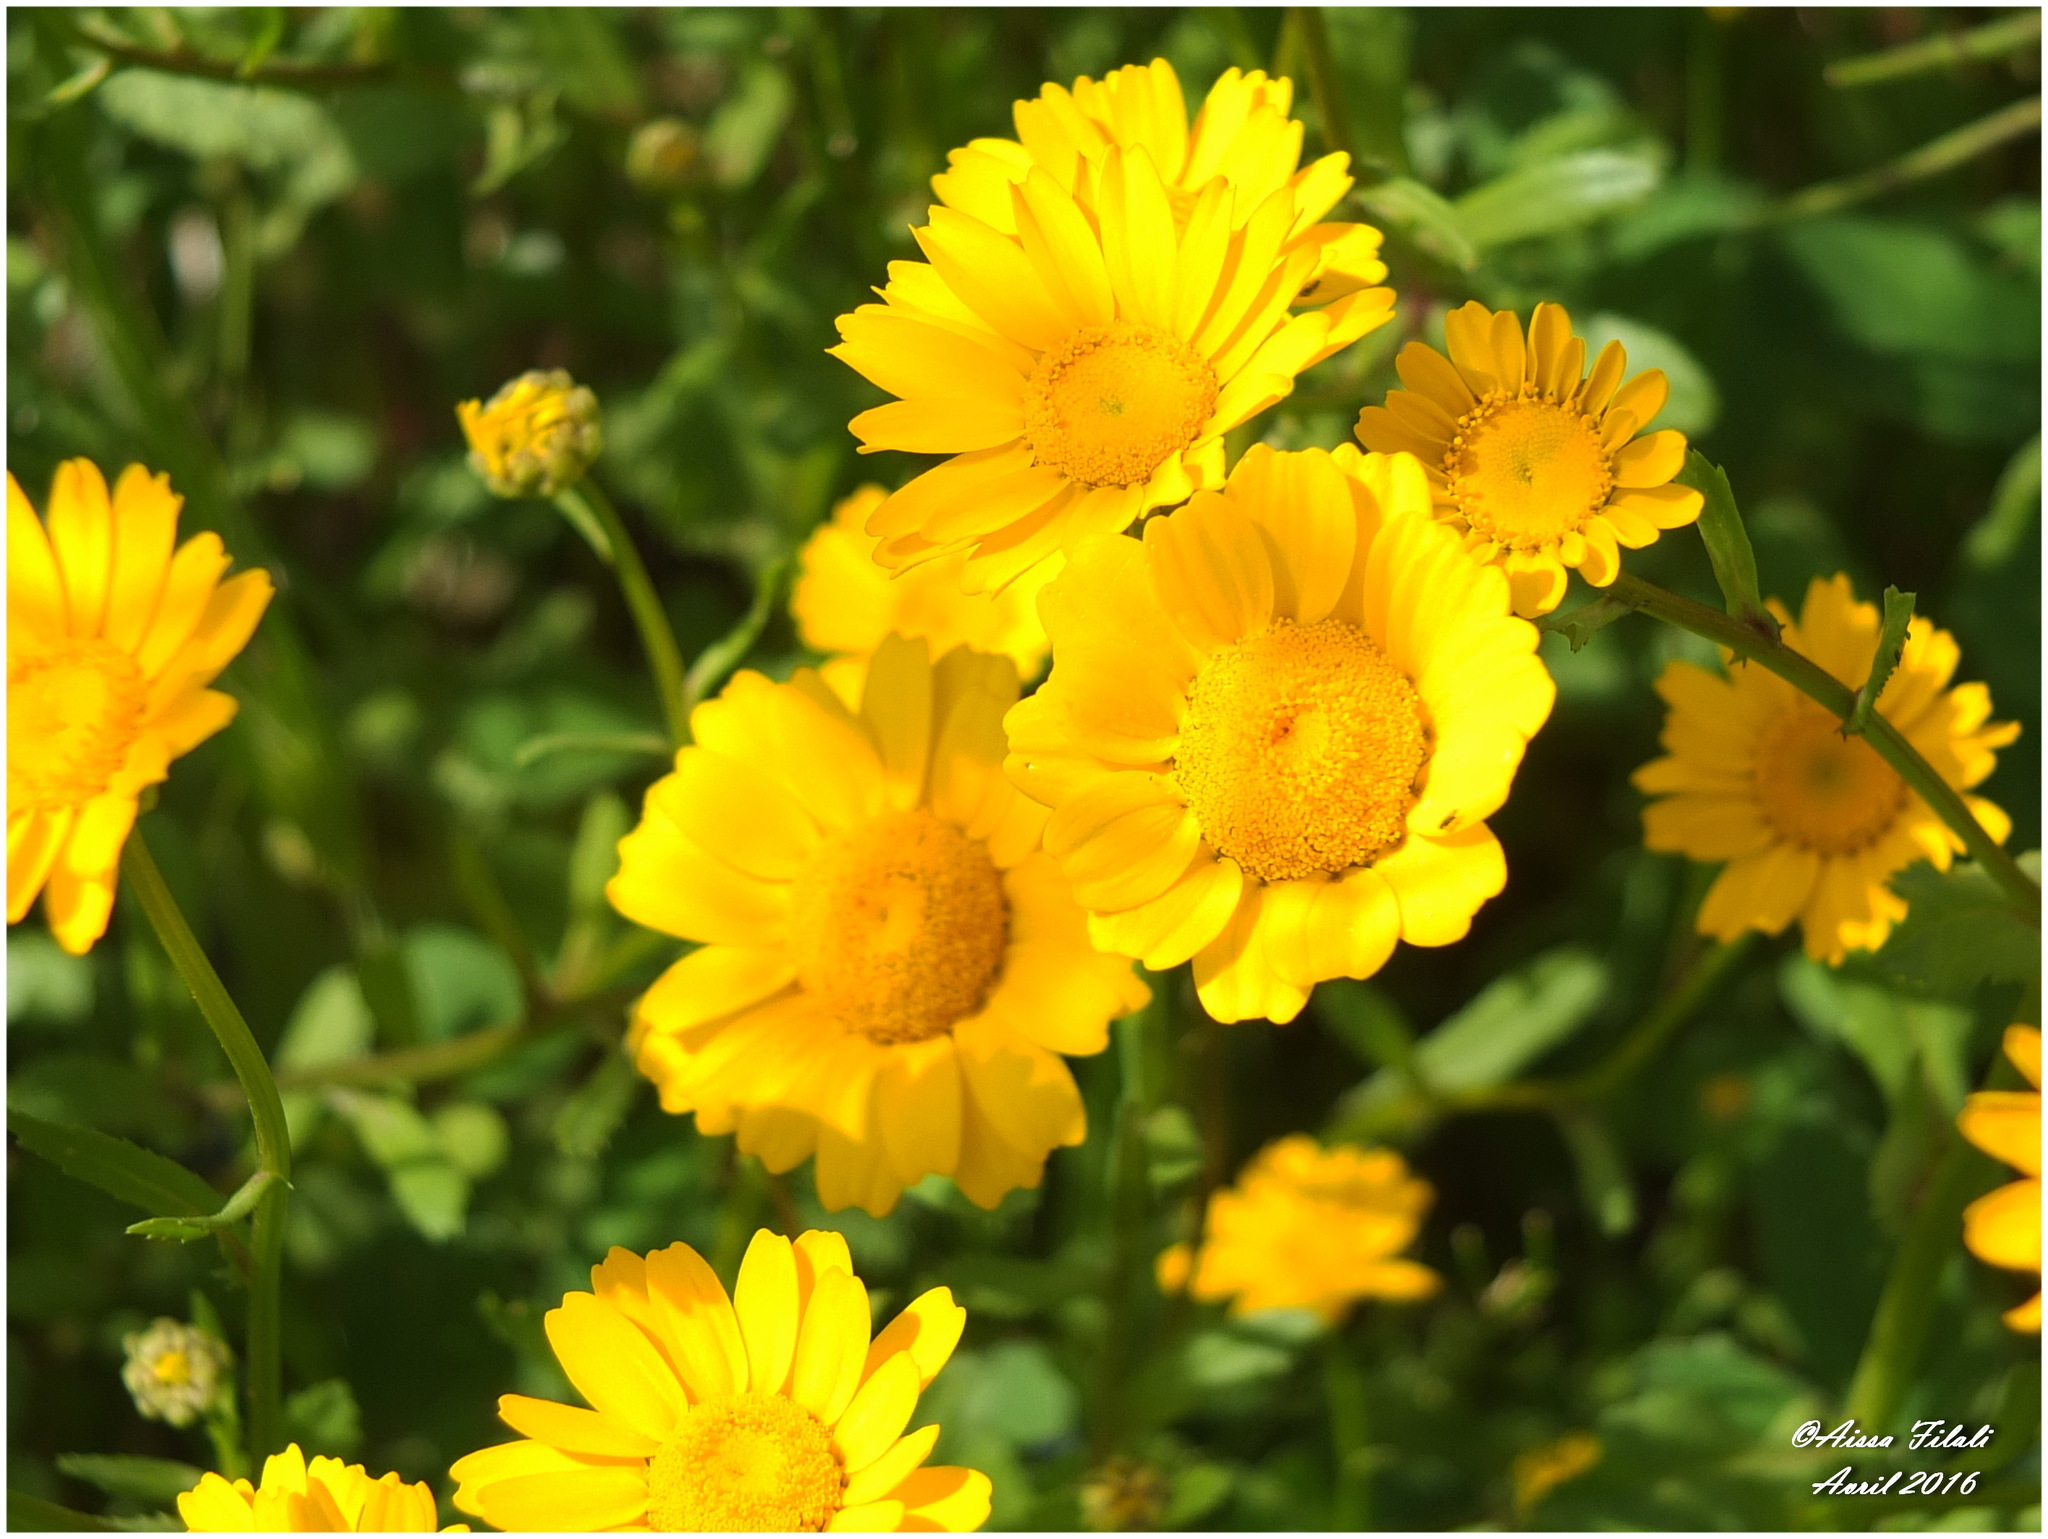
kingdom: Plantae
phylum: Tracheophyta
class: Magnoliopsida
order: Asterales
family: Asteraceae
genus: Coleostephus
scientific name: Coleostephus myconis
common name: Mediterranean marigold
